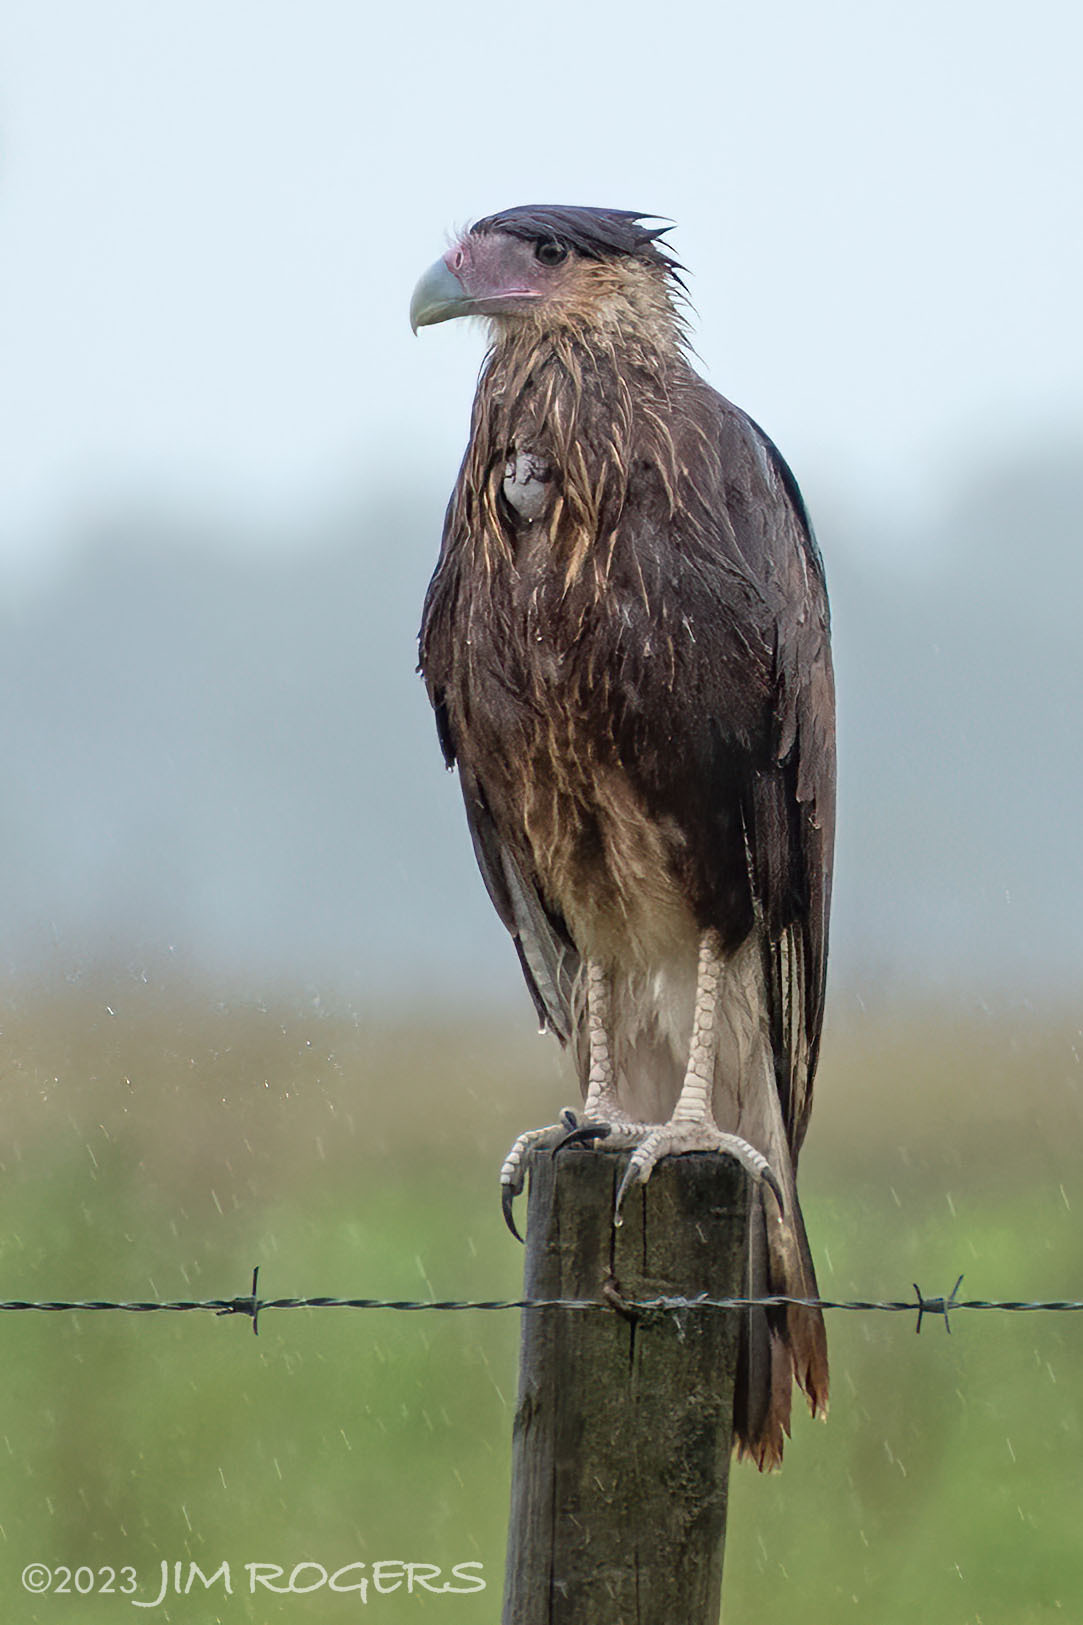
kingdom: Animalia
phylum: Chordata
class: Aves
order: Falconiformes
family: Falconidae
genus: Caracara
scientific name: Caracara plancus
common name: Southern caracara
